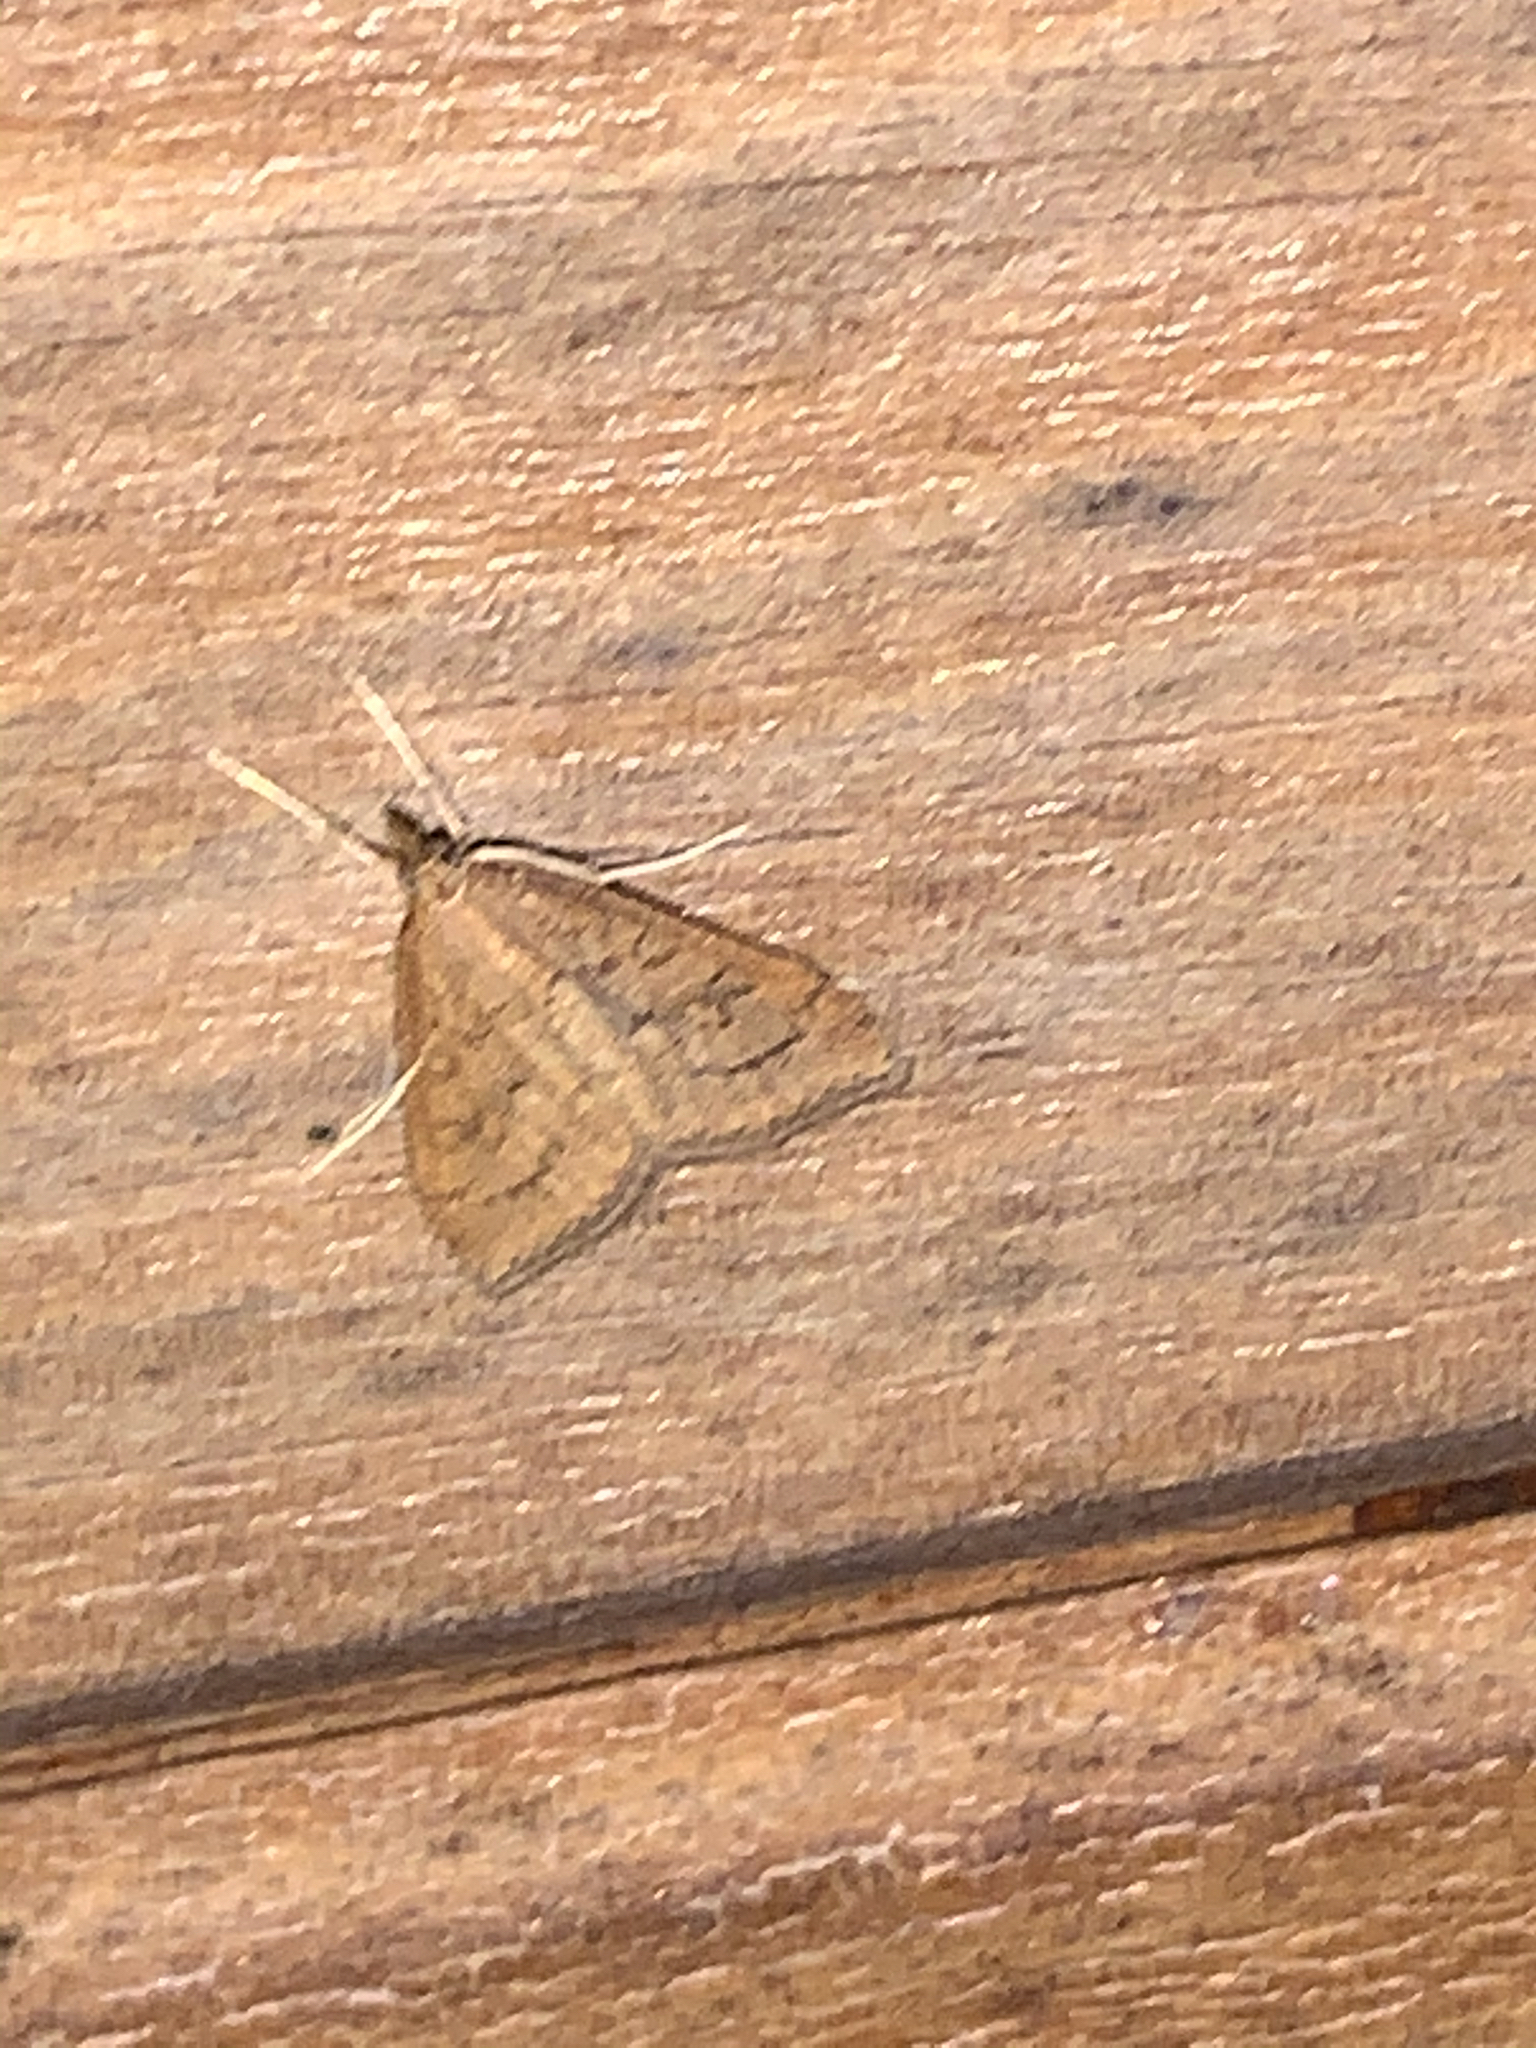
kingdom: Animalia
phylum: Arthropoda
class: Insecta
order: Lepidoptera
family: Crambidae
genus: Udea
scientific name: Udea rubigalis
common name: Celery leaftier moth
